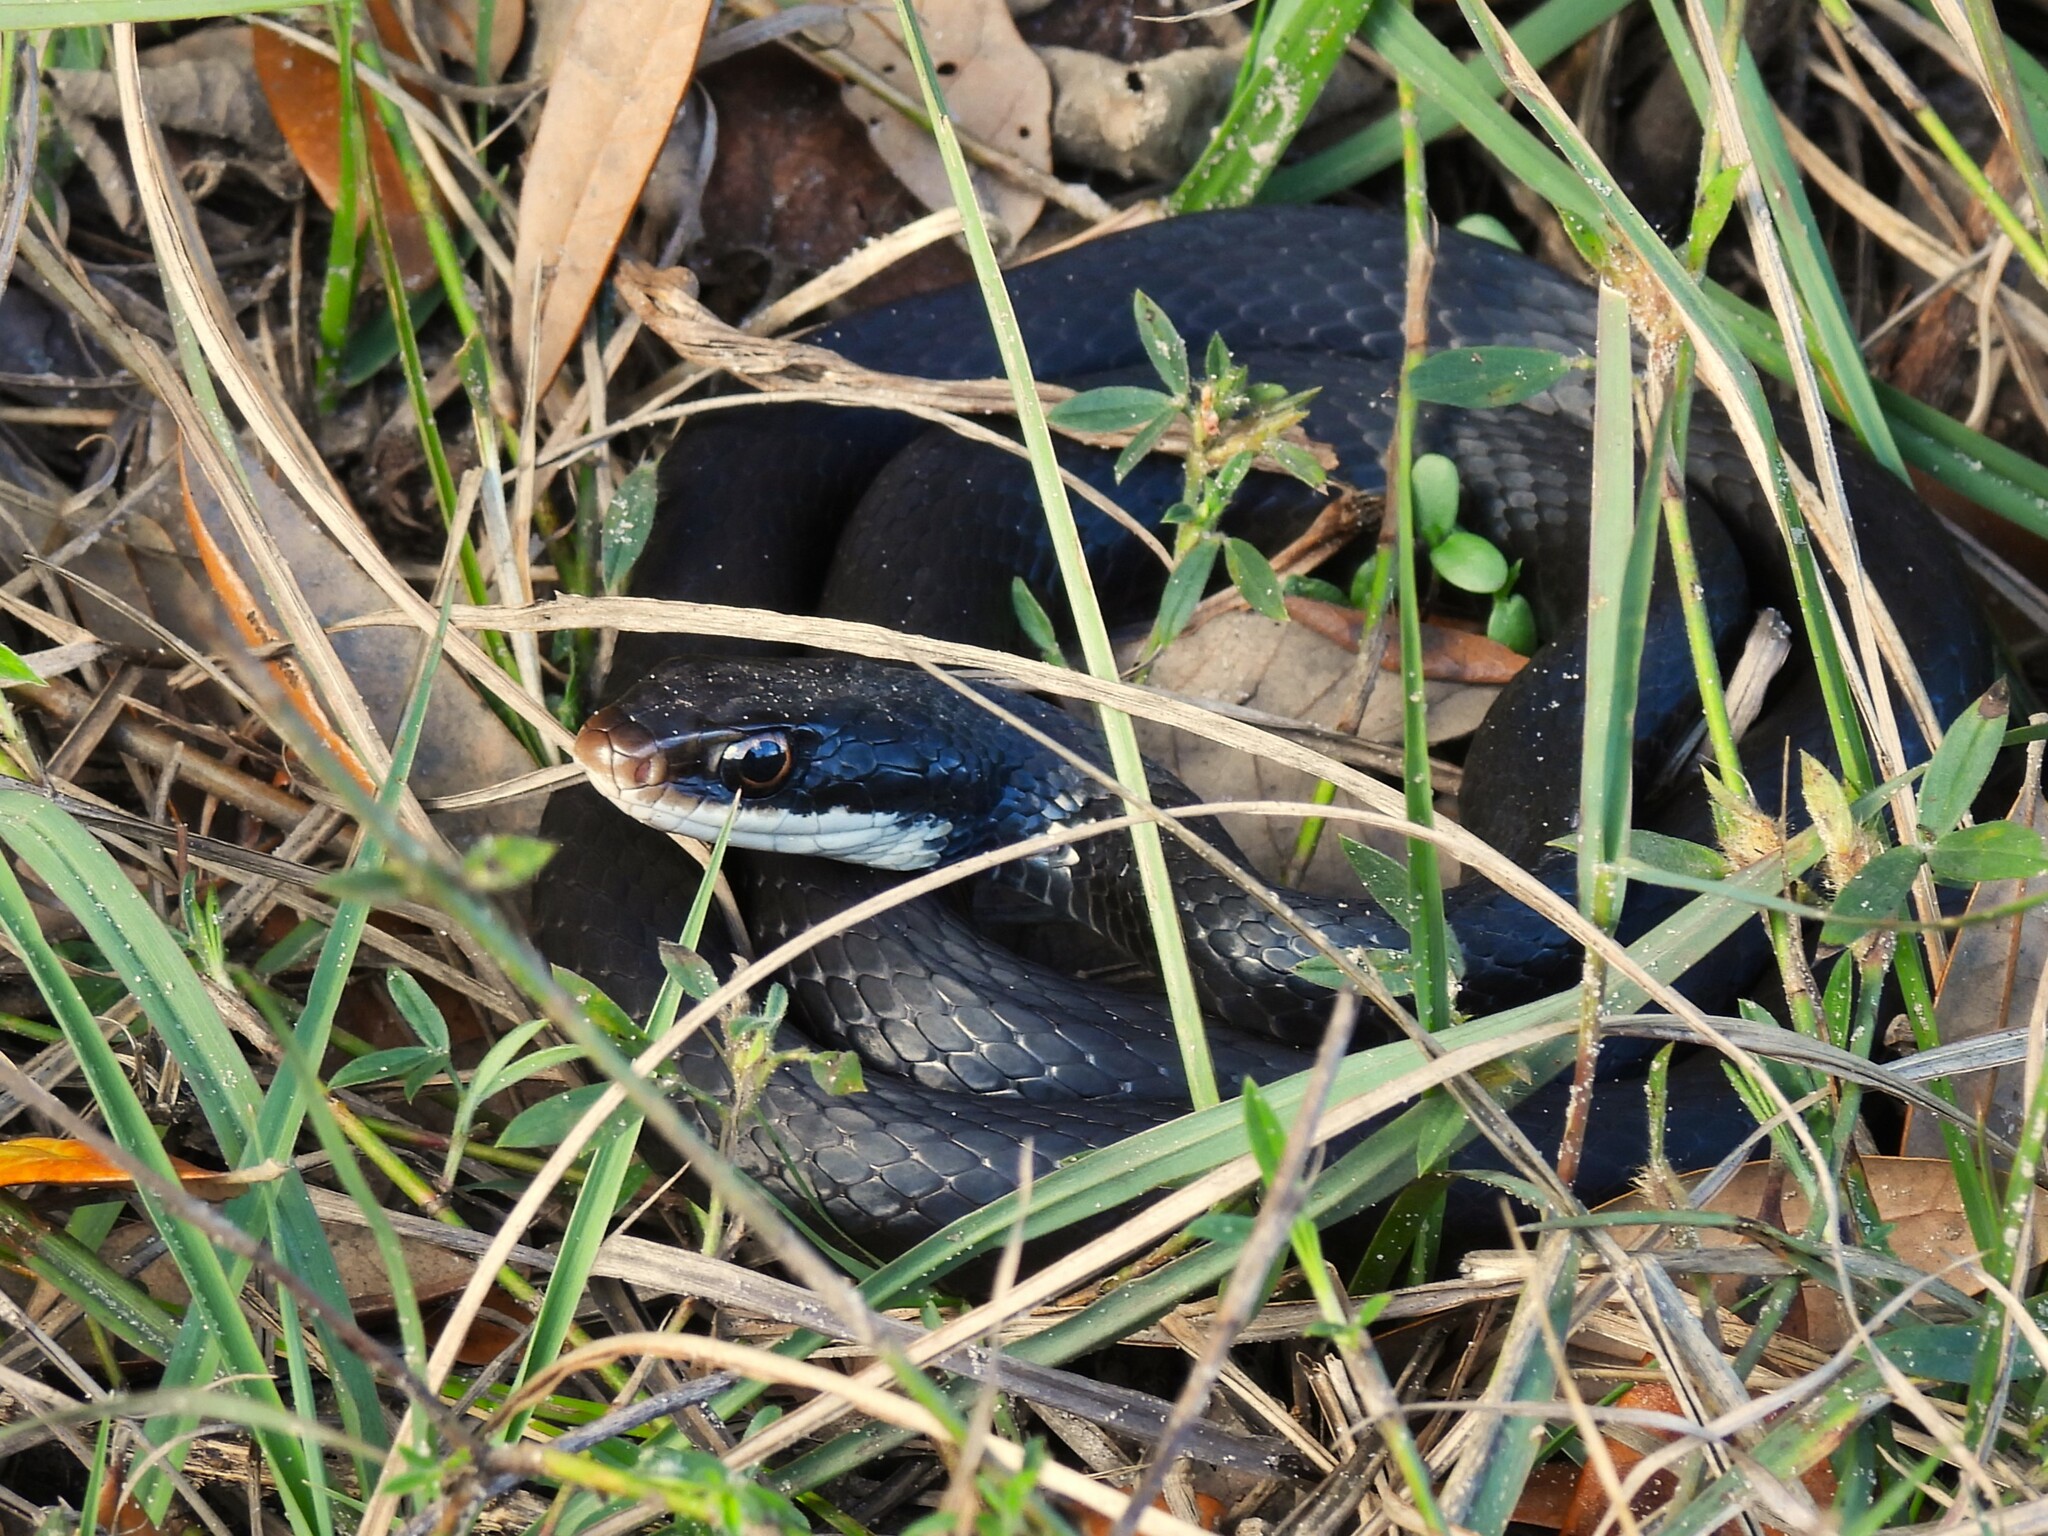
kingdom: Animalia
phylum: Chordata
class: Squamata
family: Colubridae
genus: Coluber
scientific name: Coluber constrictor
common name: Eastern racer
